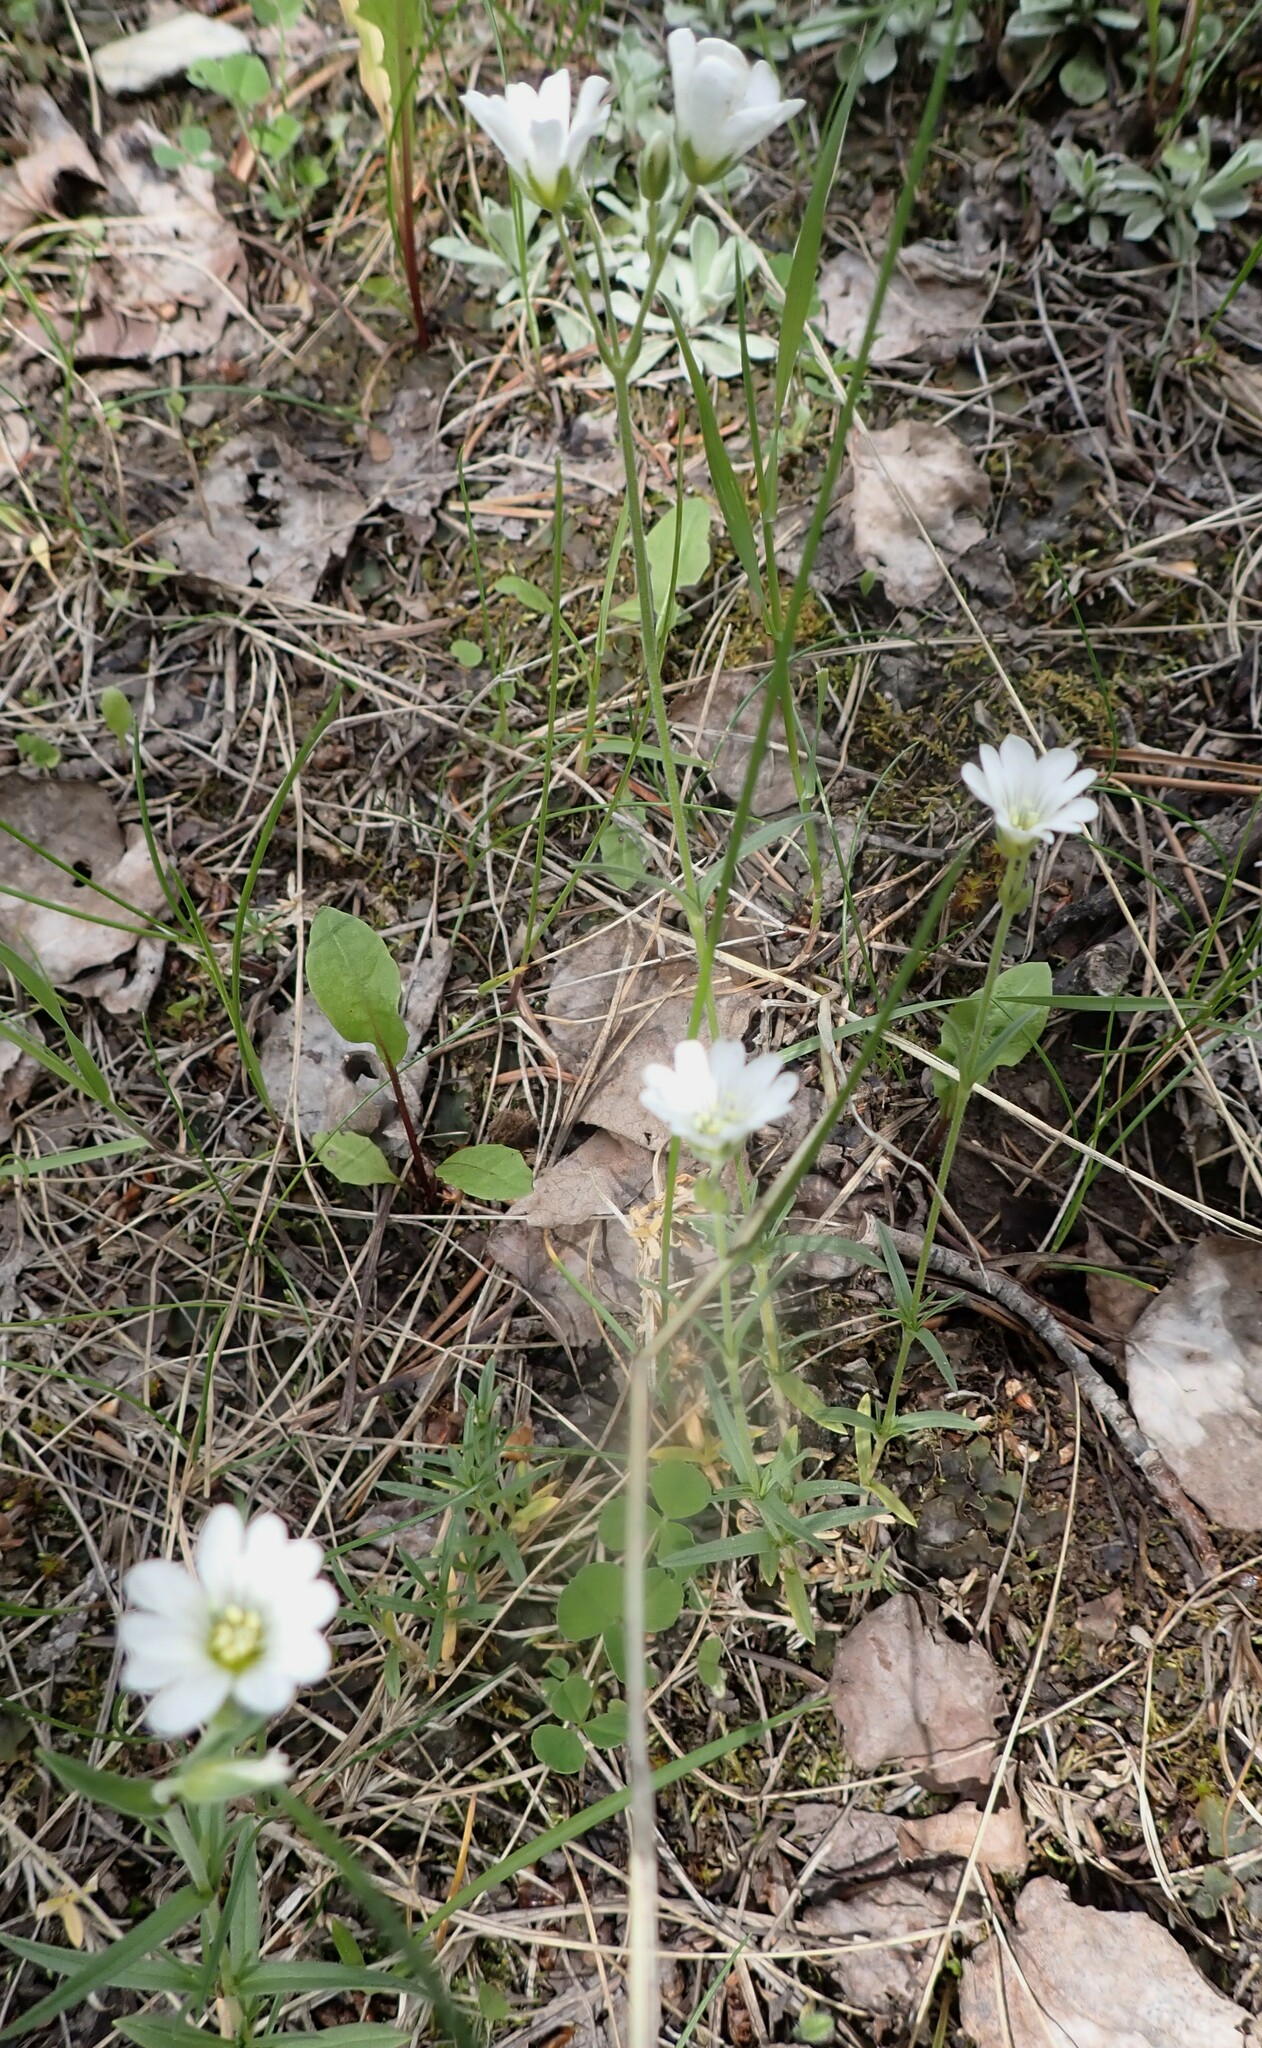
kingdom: Plantae
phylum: Tracheophyta
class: Magnoliopsida
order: Caryophyllales
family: Caryophyllaceae
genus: Cerastium
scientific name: Cerastium arvense
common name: Field mouse-ear
